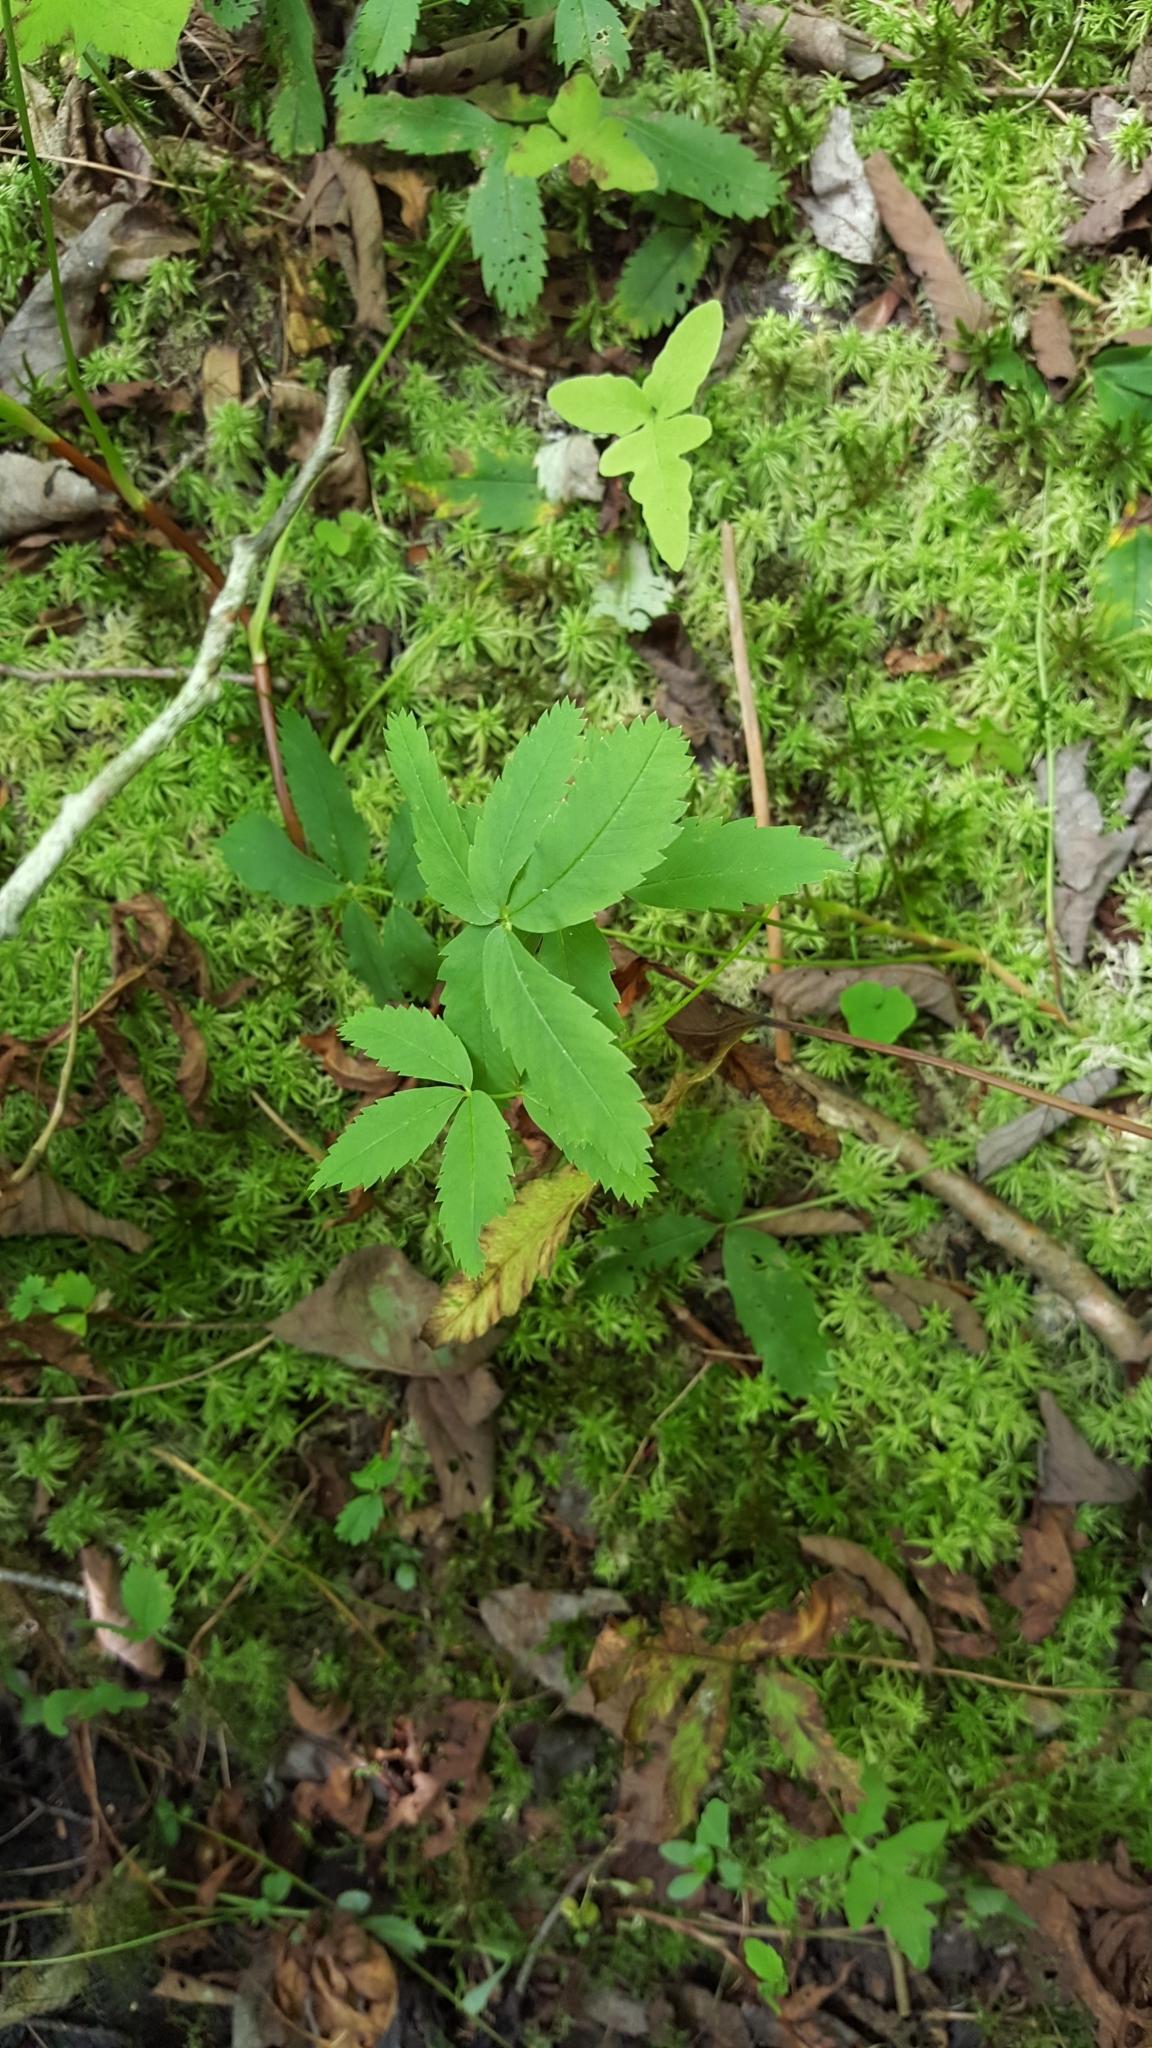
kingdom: Plantae
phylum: Tracheophyta
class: Magnoliopsida
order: Rosales
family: Rosaceae
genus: Comarum
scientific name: Comarum palustre
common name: Marsh cinquefoil
